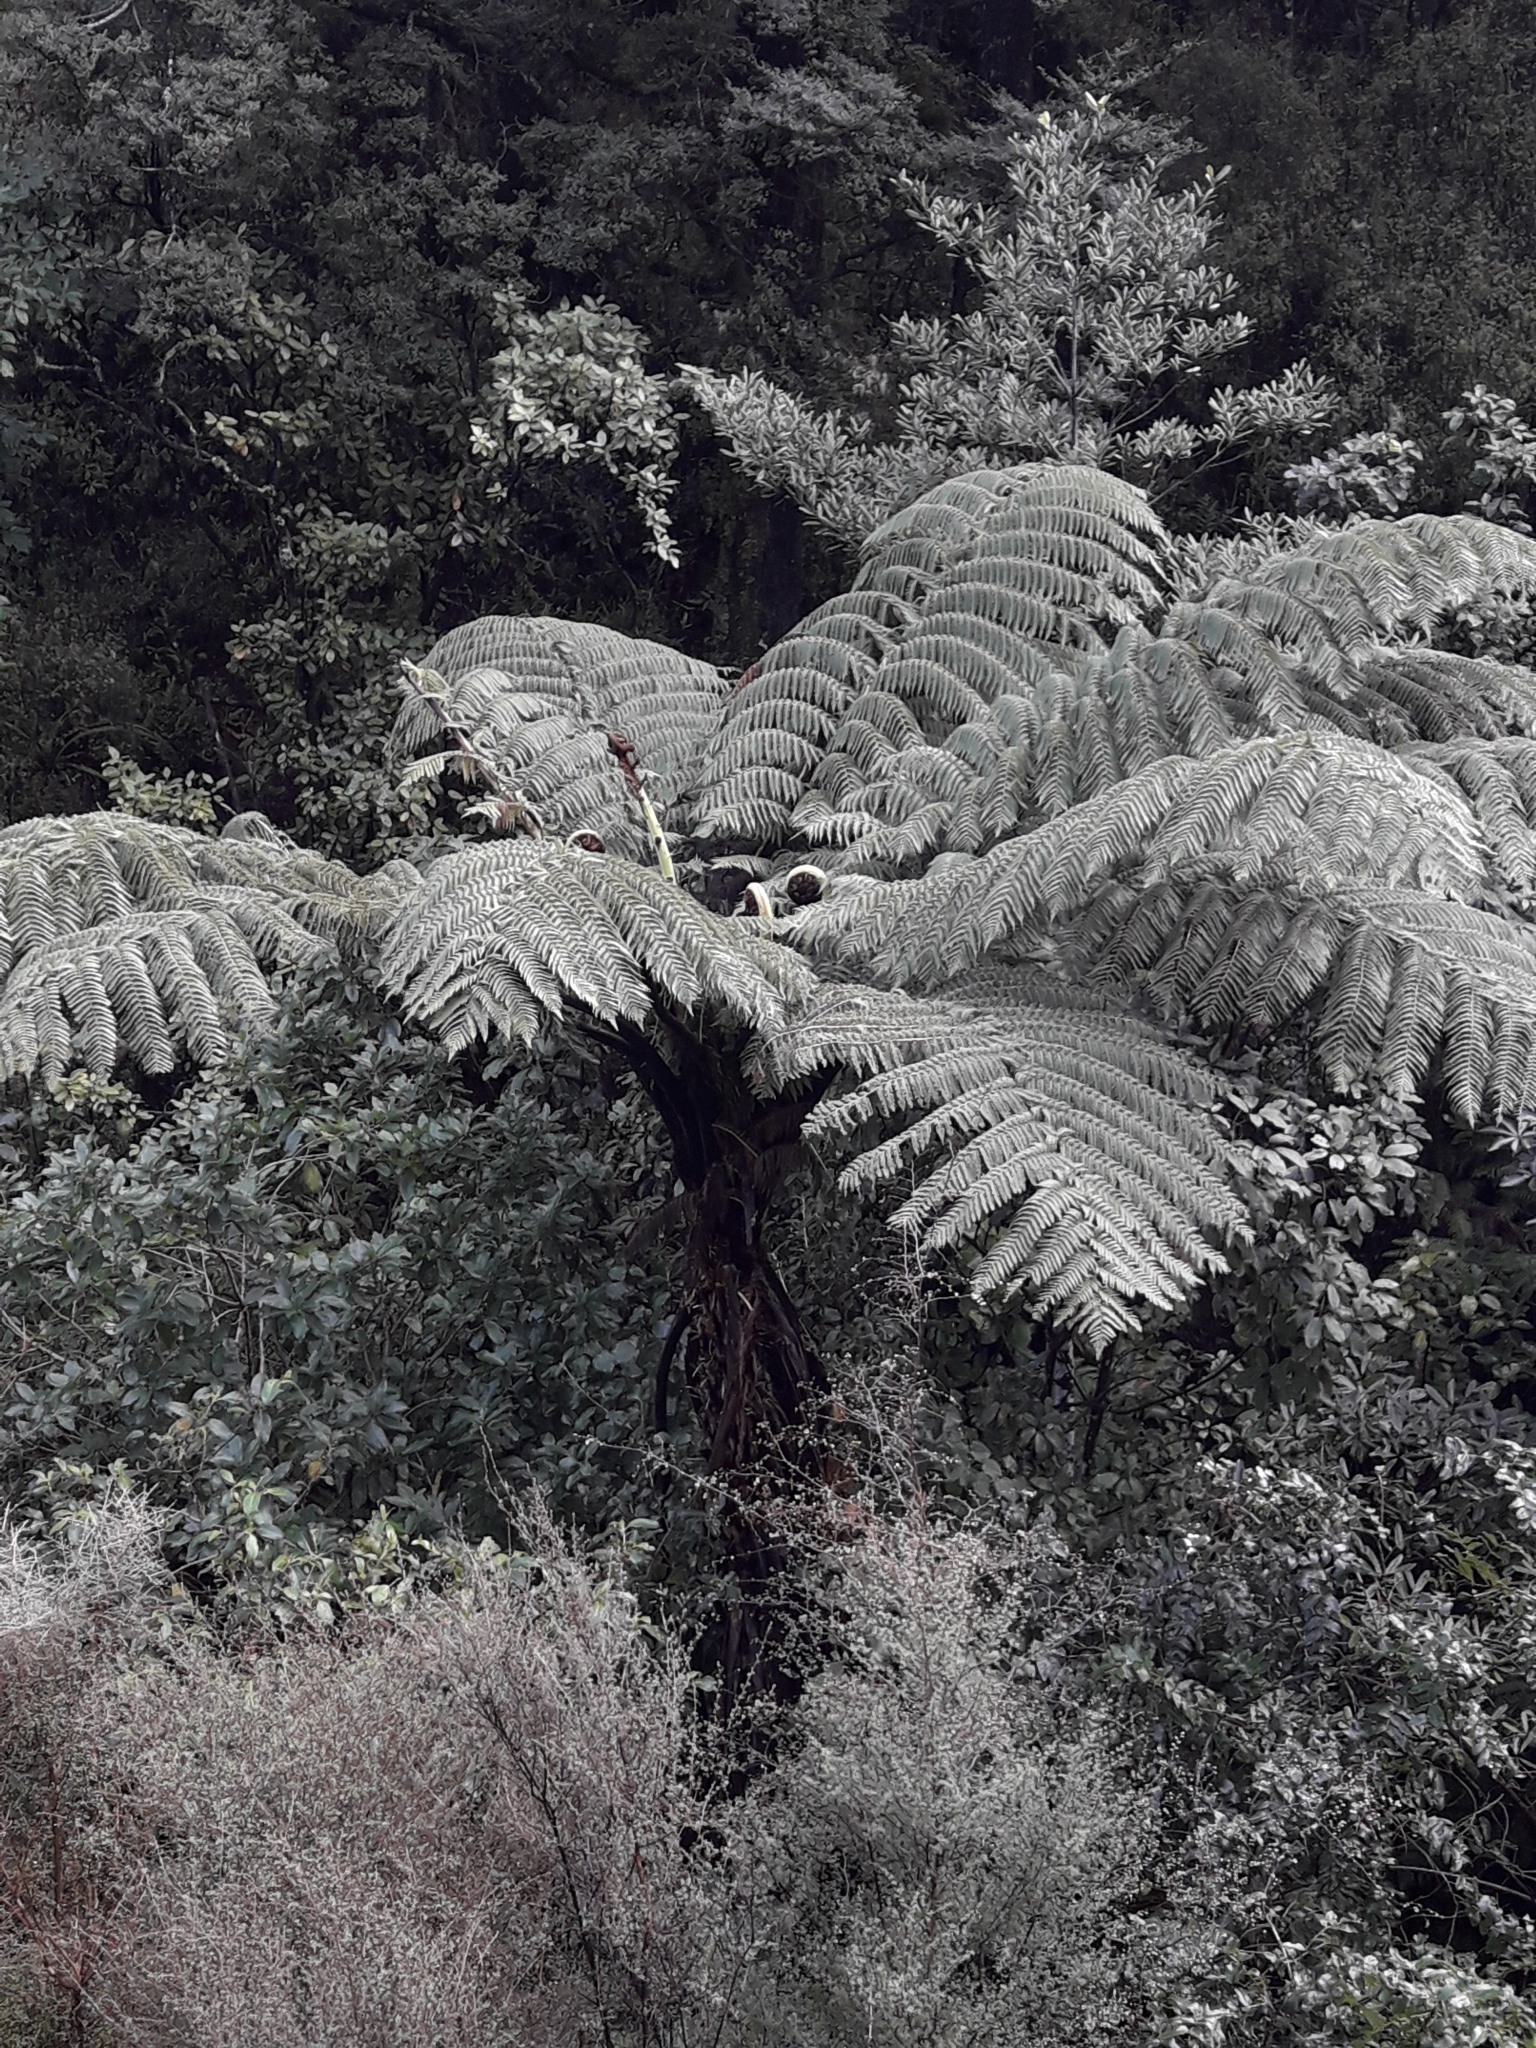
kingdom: Plantae
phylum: Tracheophyta
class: Polypodiopsida
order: Cyatheales
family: Cyatheaceae
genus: Sphaeropteris
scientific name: Sphaeropteris medullaris
